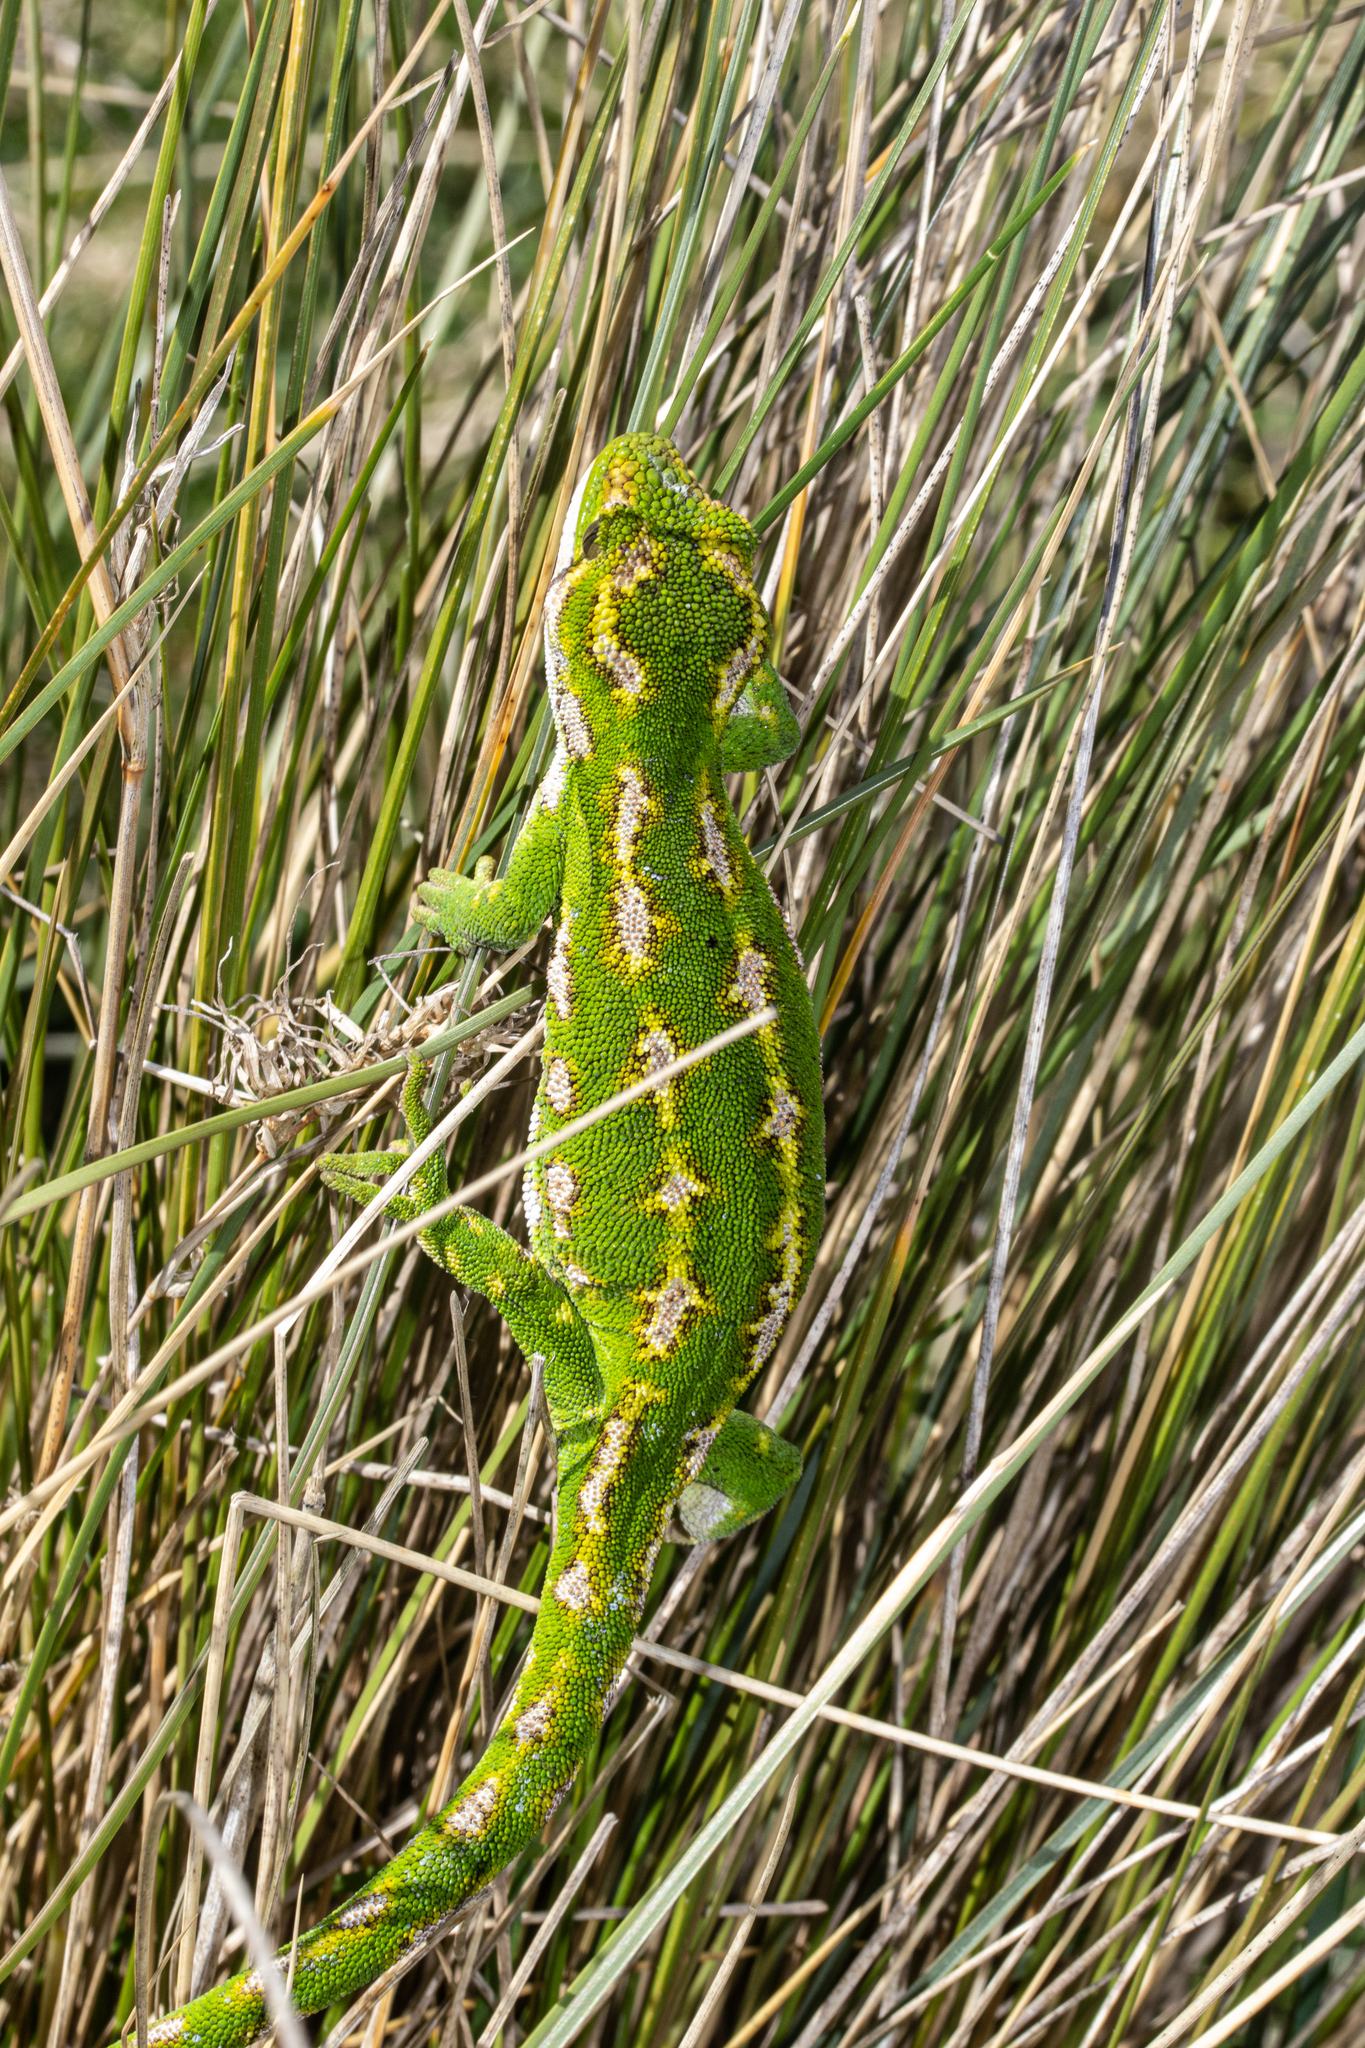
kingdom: Animalia
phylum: Chordata
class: Squamata
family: Diplodactylidae
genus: Naultinus
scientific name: Naultinus gemmeus
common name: Jewelled gecko
